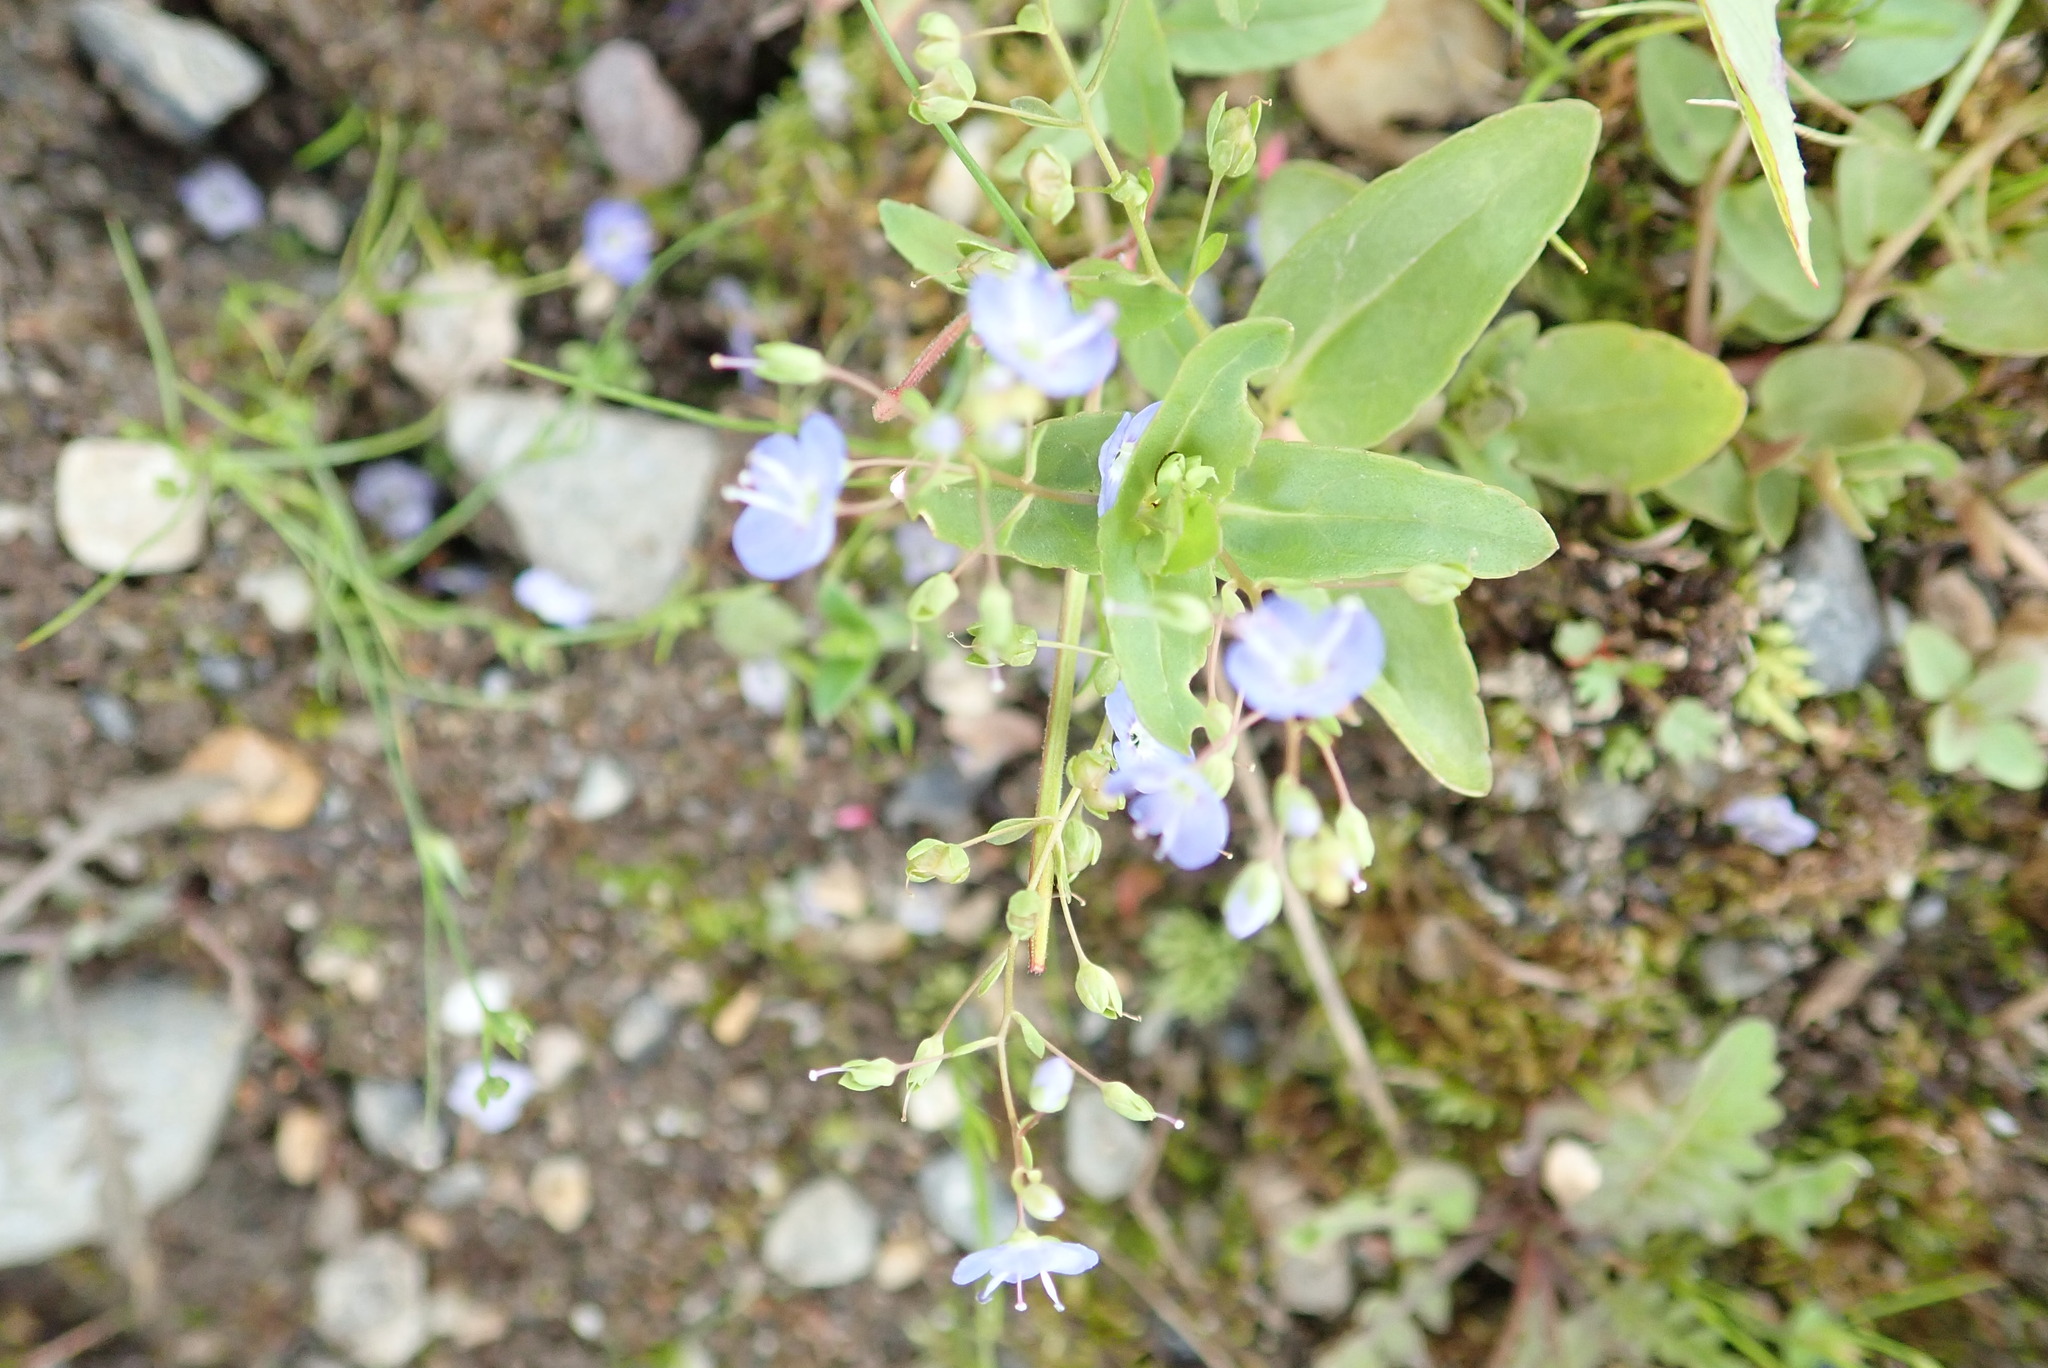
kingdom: Plantae
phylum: Tracheophyta
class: Magnoliopsida
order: Lamiales
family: Plantaginaceae
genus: Veronica
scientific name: Veronica americana
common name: American brooklime
